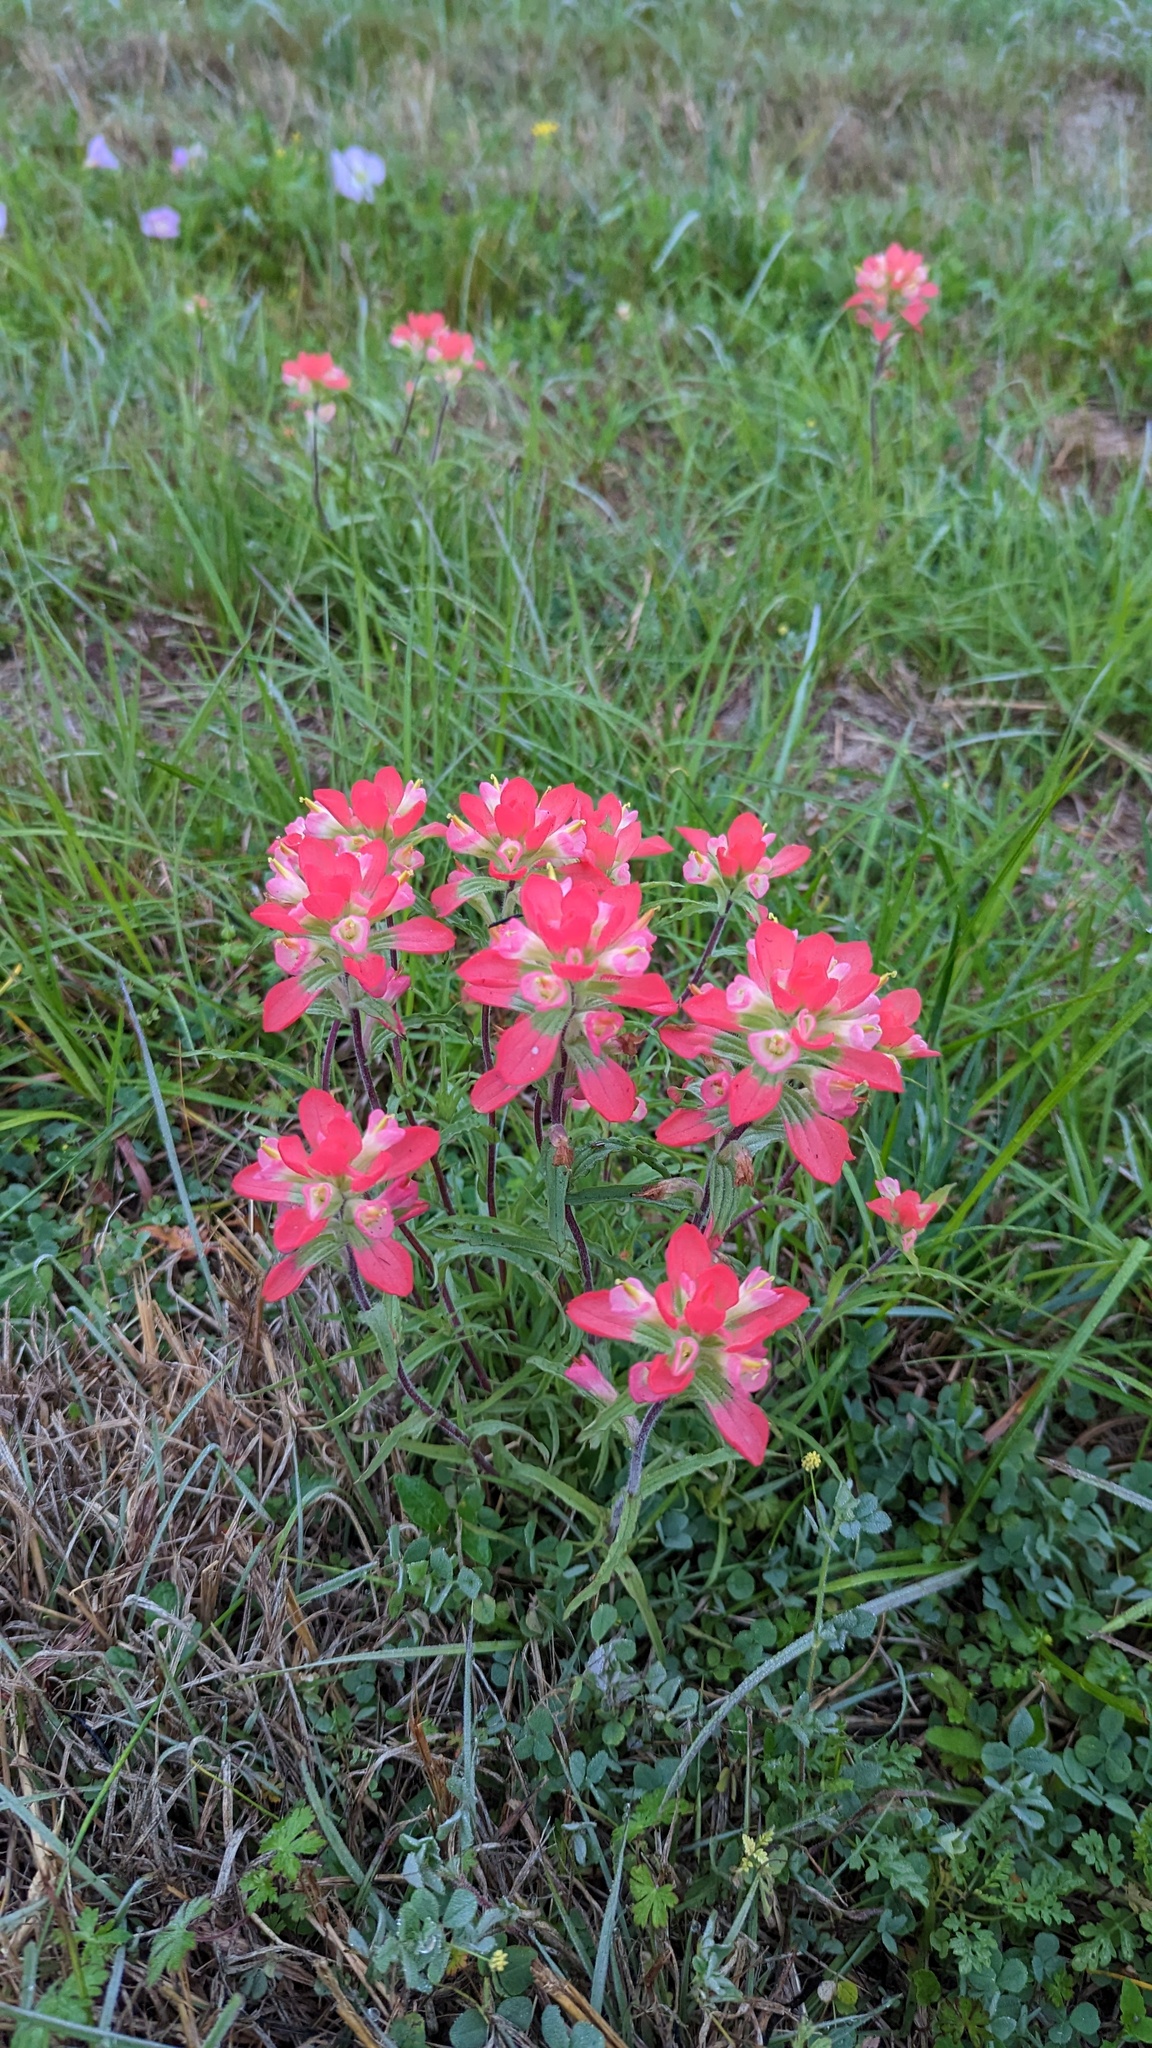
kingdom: Plantae
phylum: Tracheophyta
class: Magnoliopsida
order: Lamiales
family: Orobanchaceae
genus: Castilleja
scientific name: Castilleja indivisa
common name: Texas paintbrush
